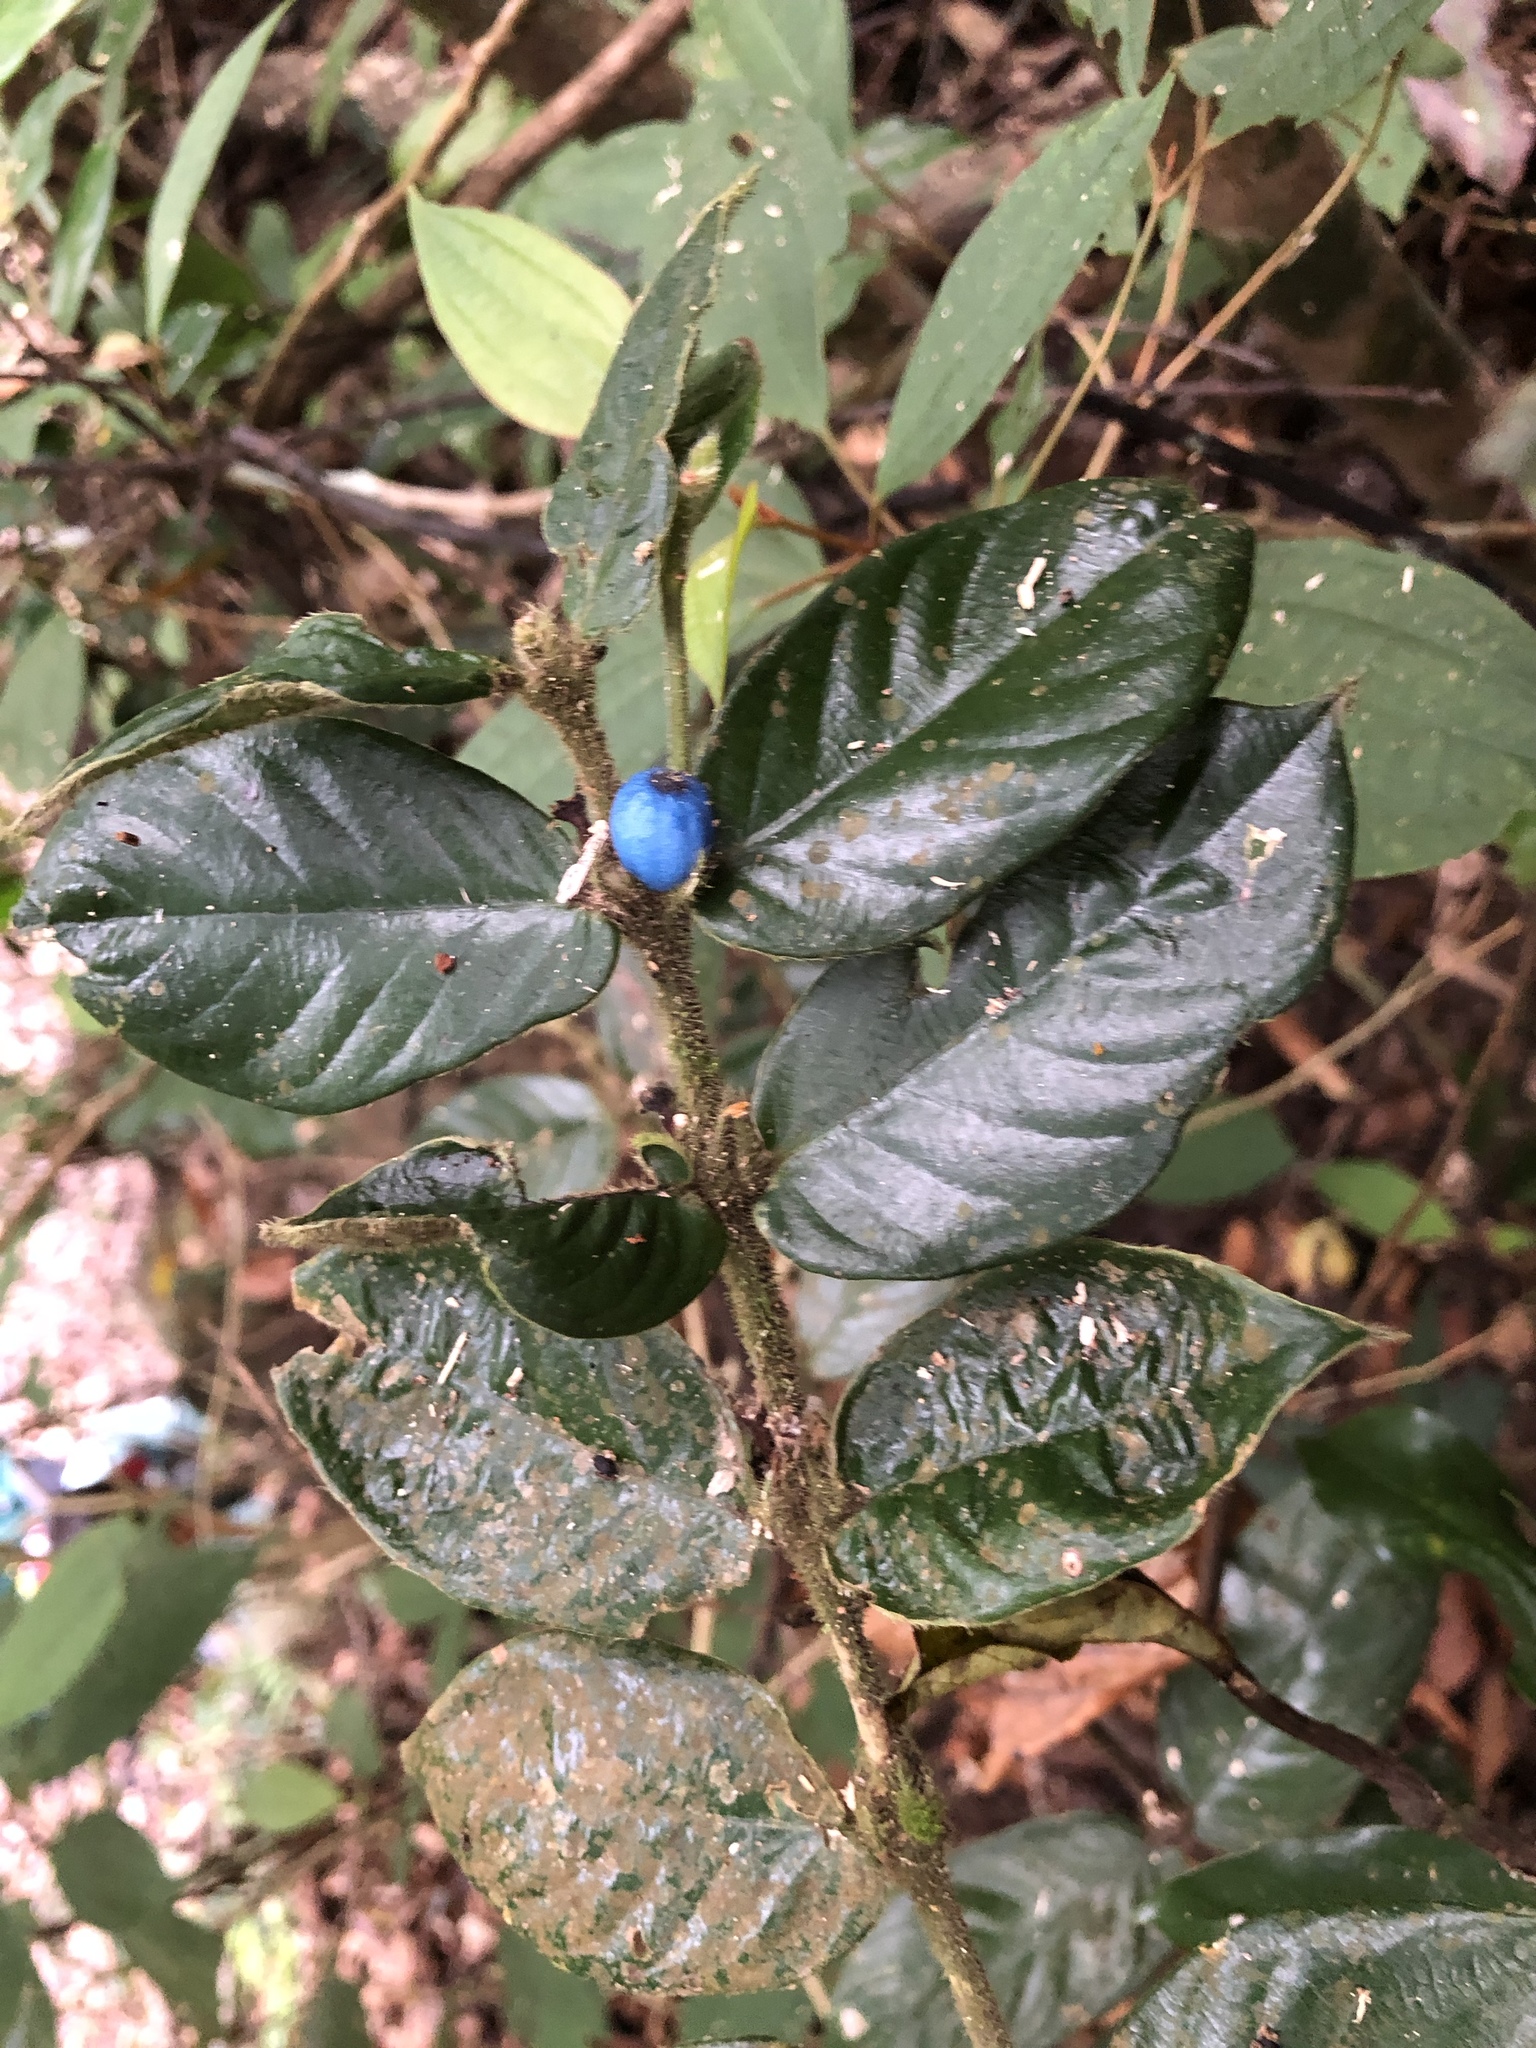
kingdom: Plantae
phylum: Tracheophyta
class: Magnoliopsida
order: Gentianales
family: Rubiaceae
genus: Lasianthus
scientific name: Lasianthus attenuatus
